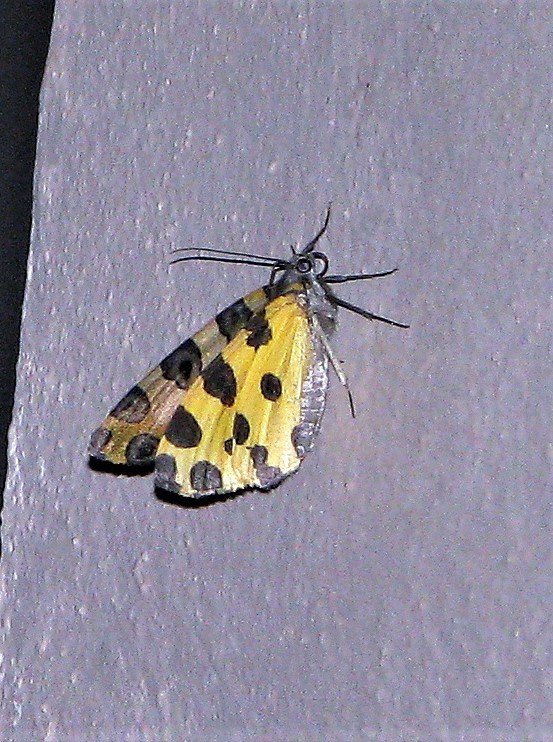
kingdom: Animalia
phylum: Arthropoda
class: Insecta
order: Lepidoptera
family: Geometridae
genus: Pantherodes
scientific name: Pantherodes pardalaria
